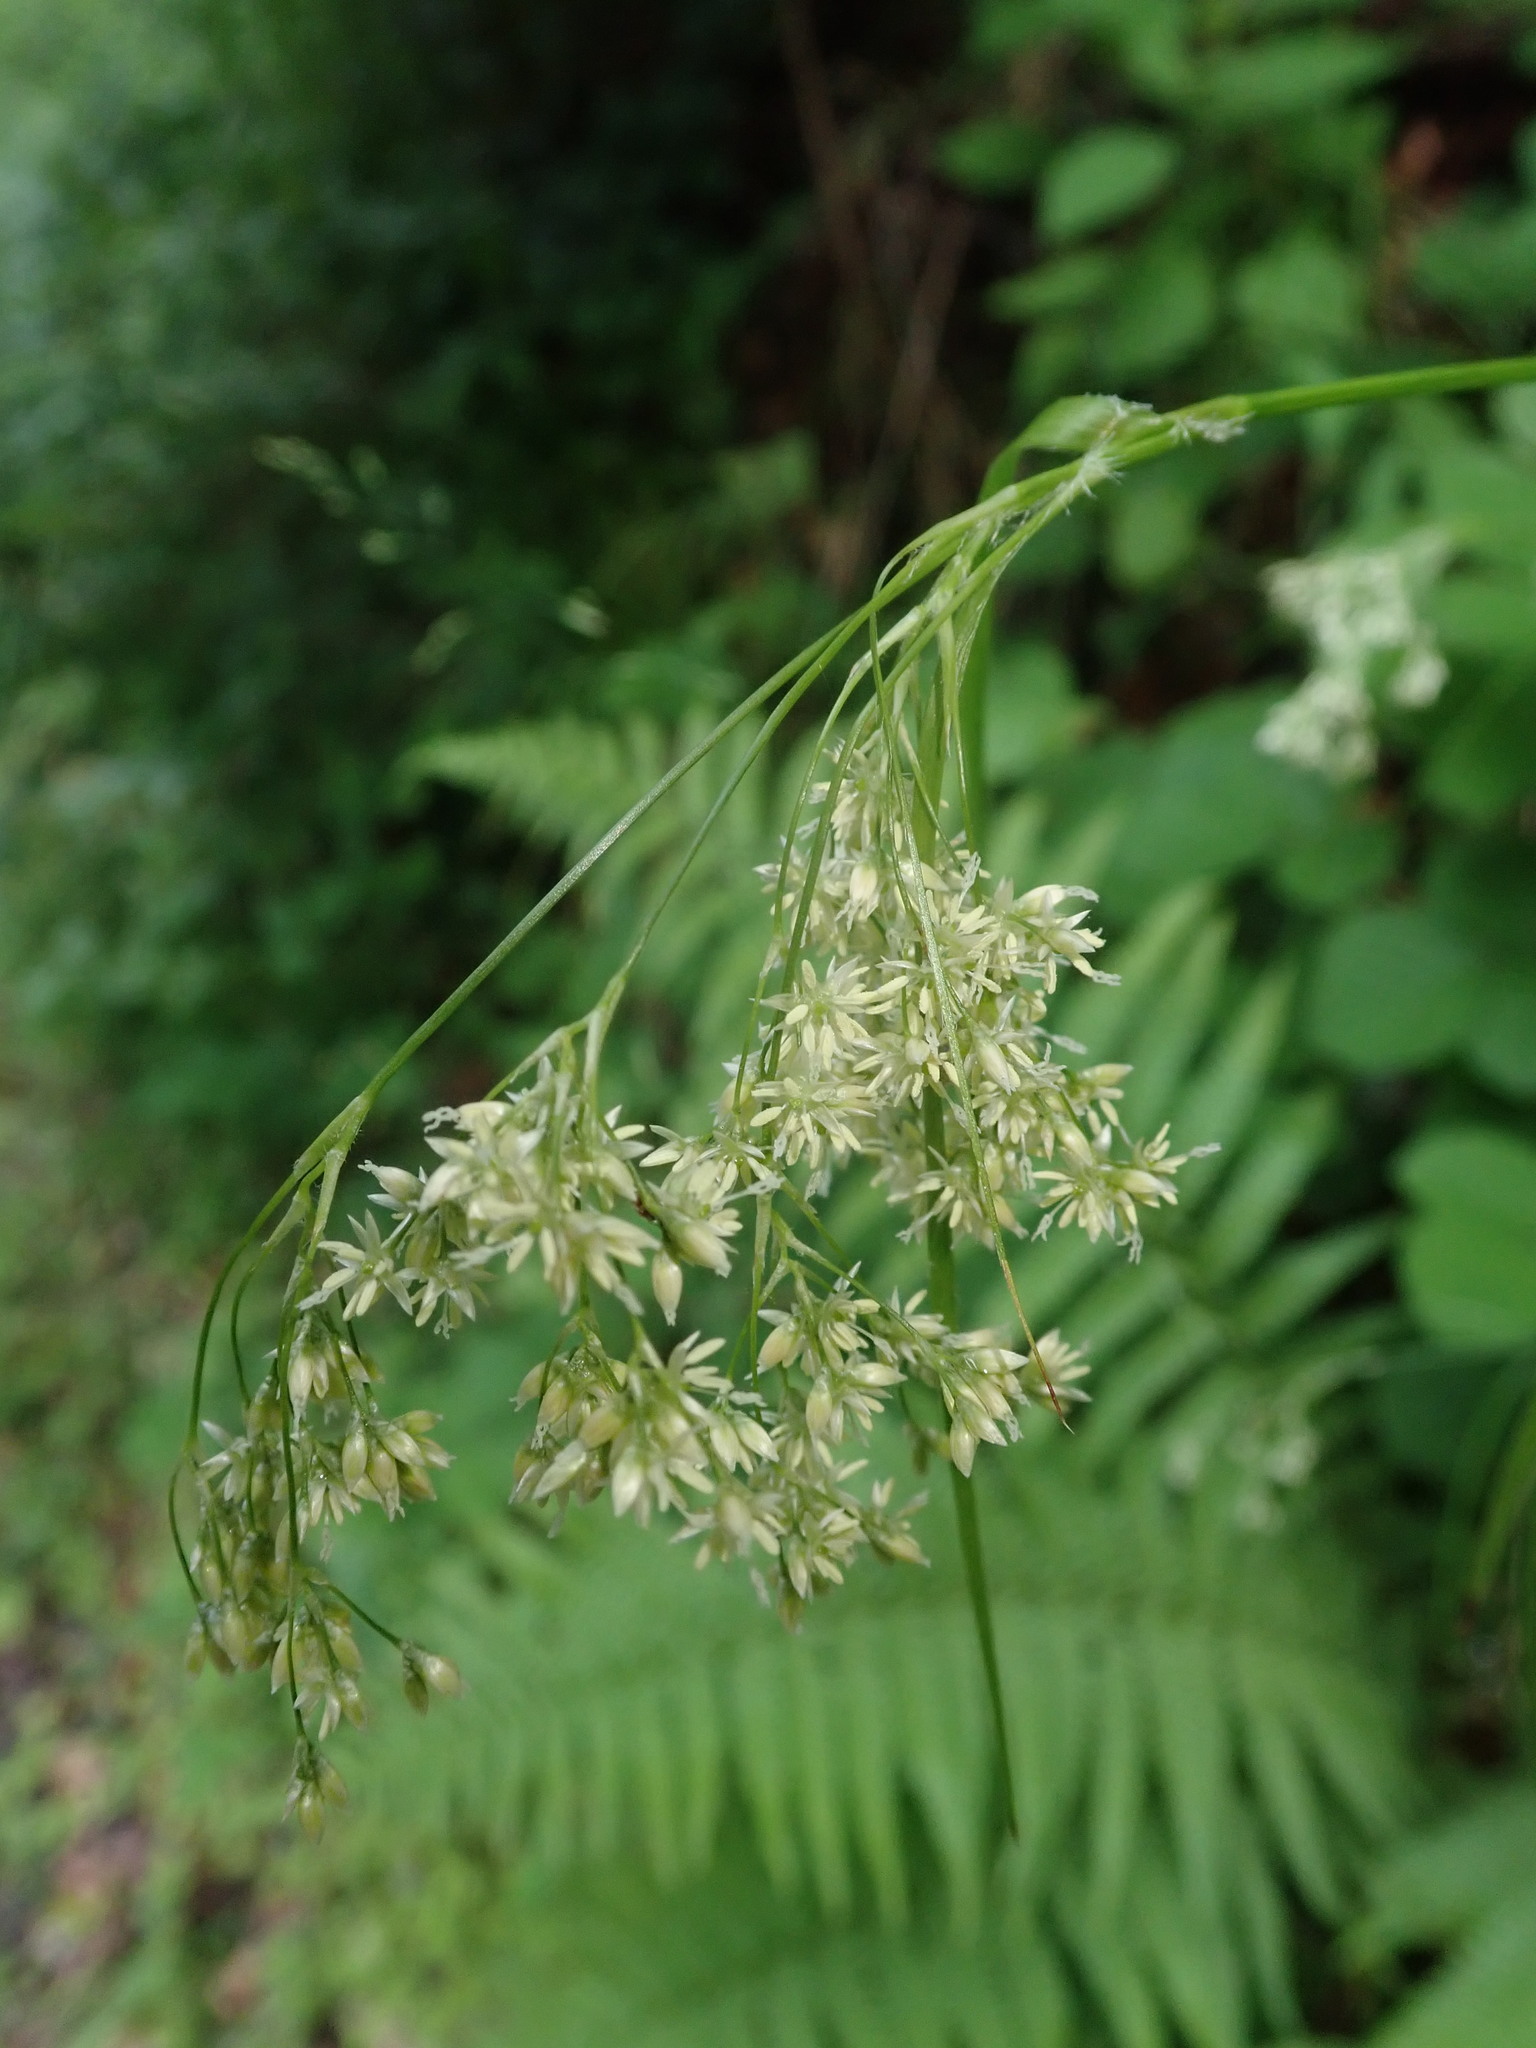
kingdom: Plantae
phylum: Tracheophyta
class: Liliopsida
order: Poales
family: Juncaceae
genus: Luzula
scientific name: Luzula luzuloides
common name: White wood-rush
